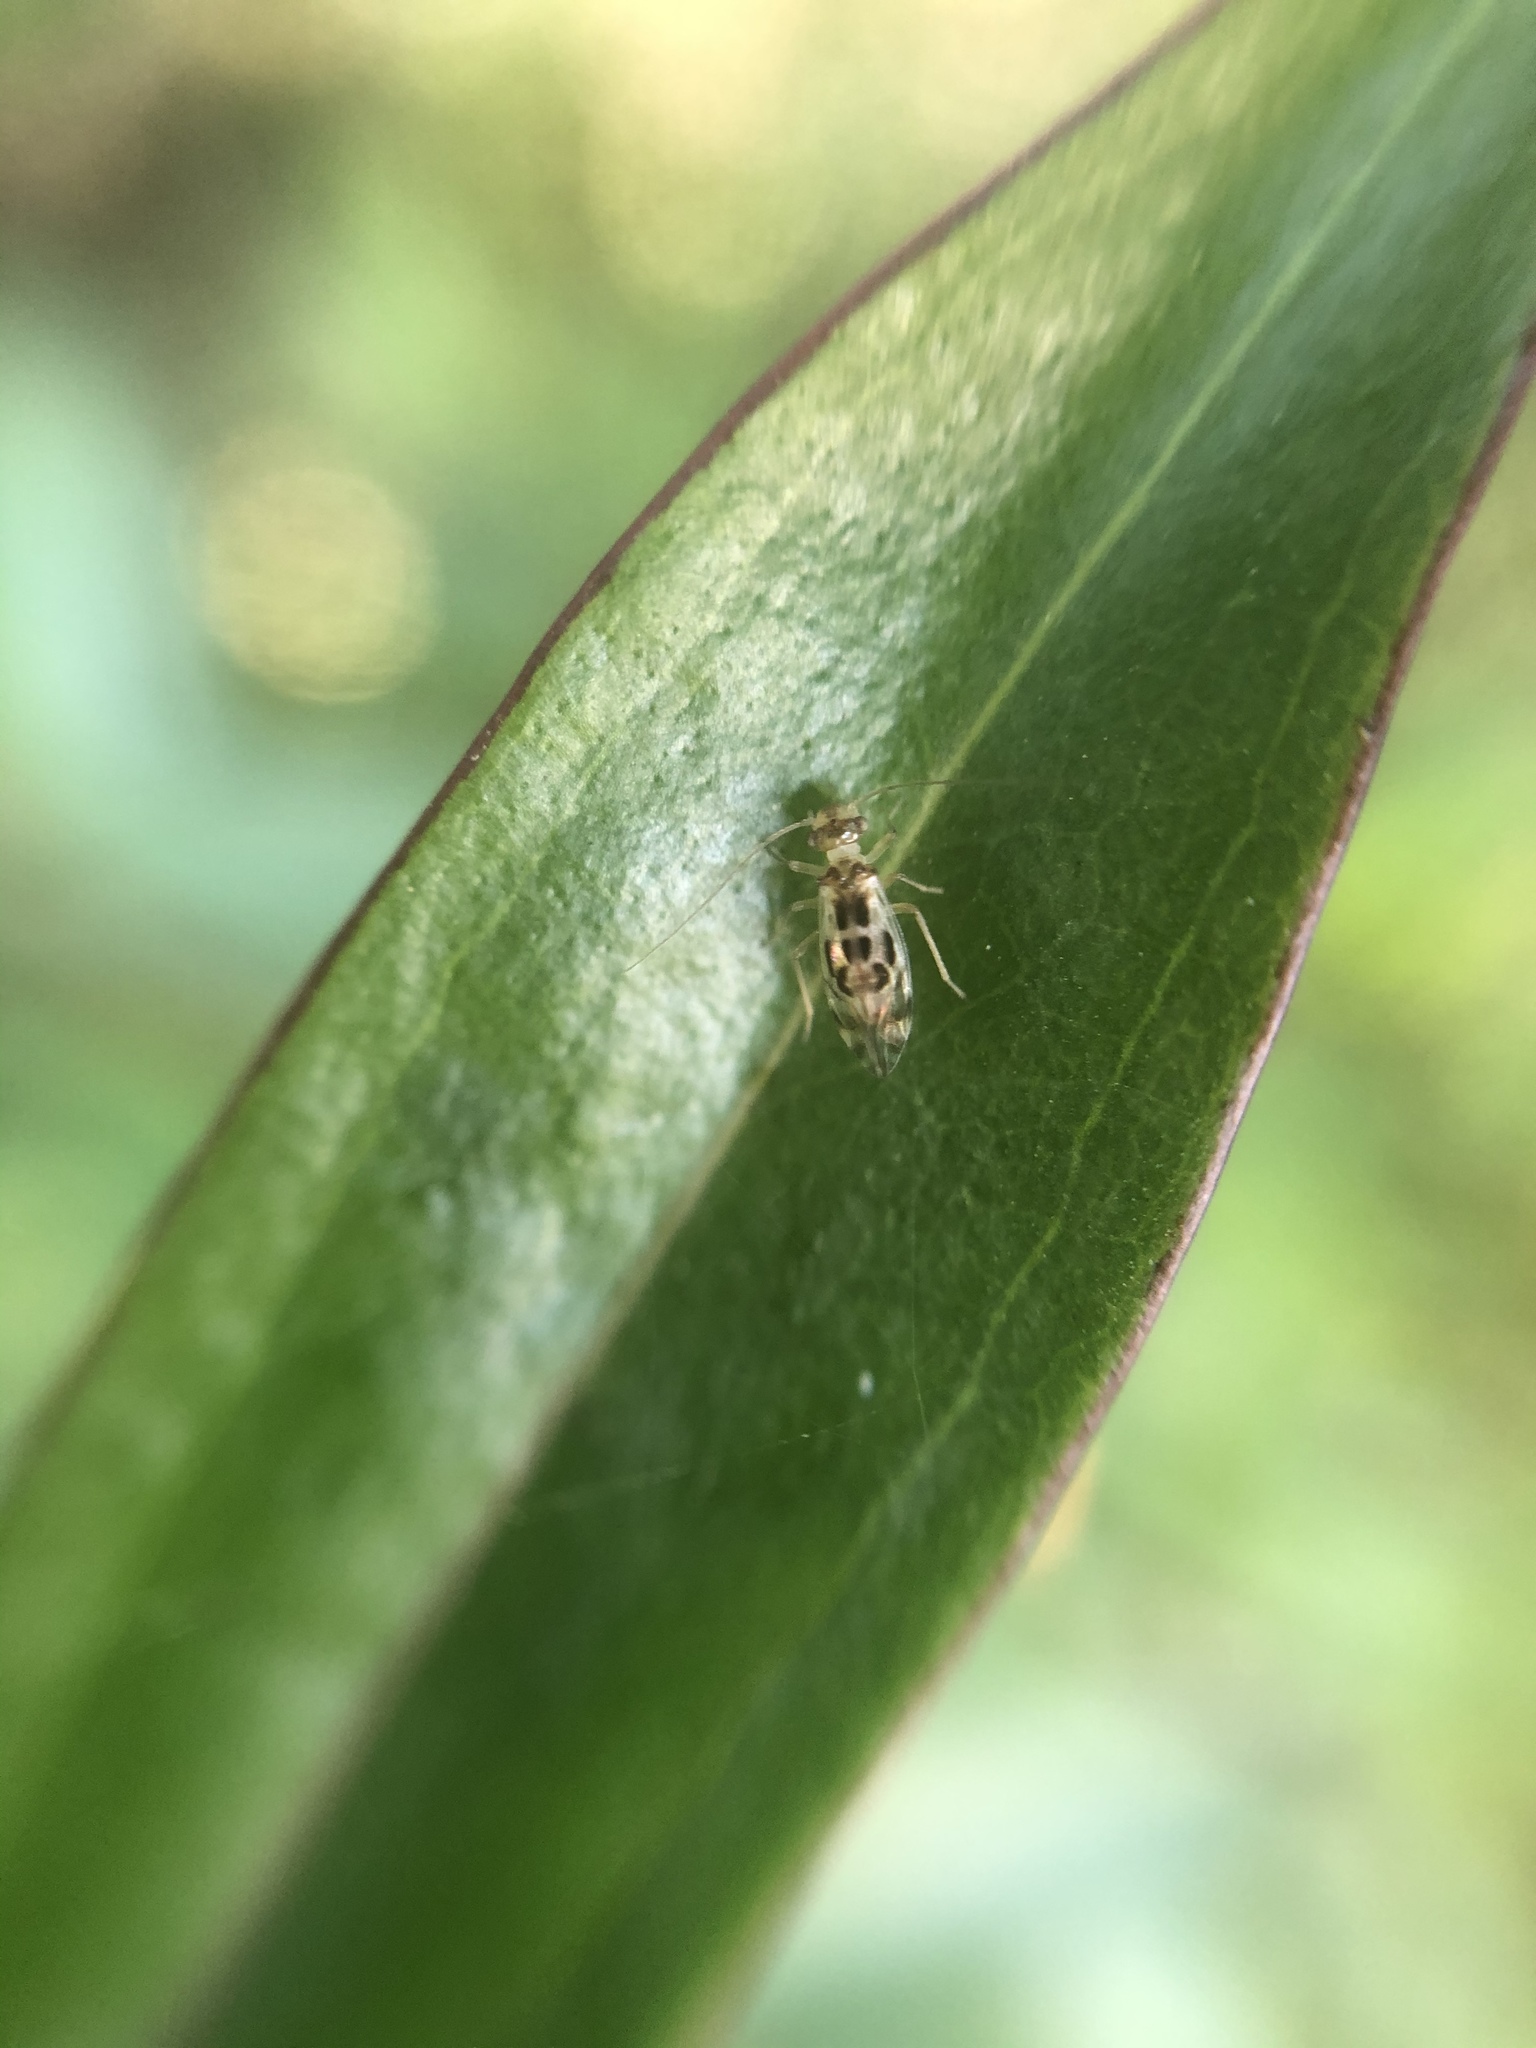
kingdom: Animalia
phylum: Arthropoda
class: Insecta
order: Psocodea
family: Stenopsocidae
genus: Graphopsocus
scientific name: Graphopsocus cruciatus
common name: Lizard bark louse
